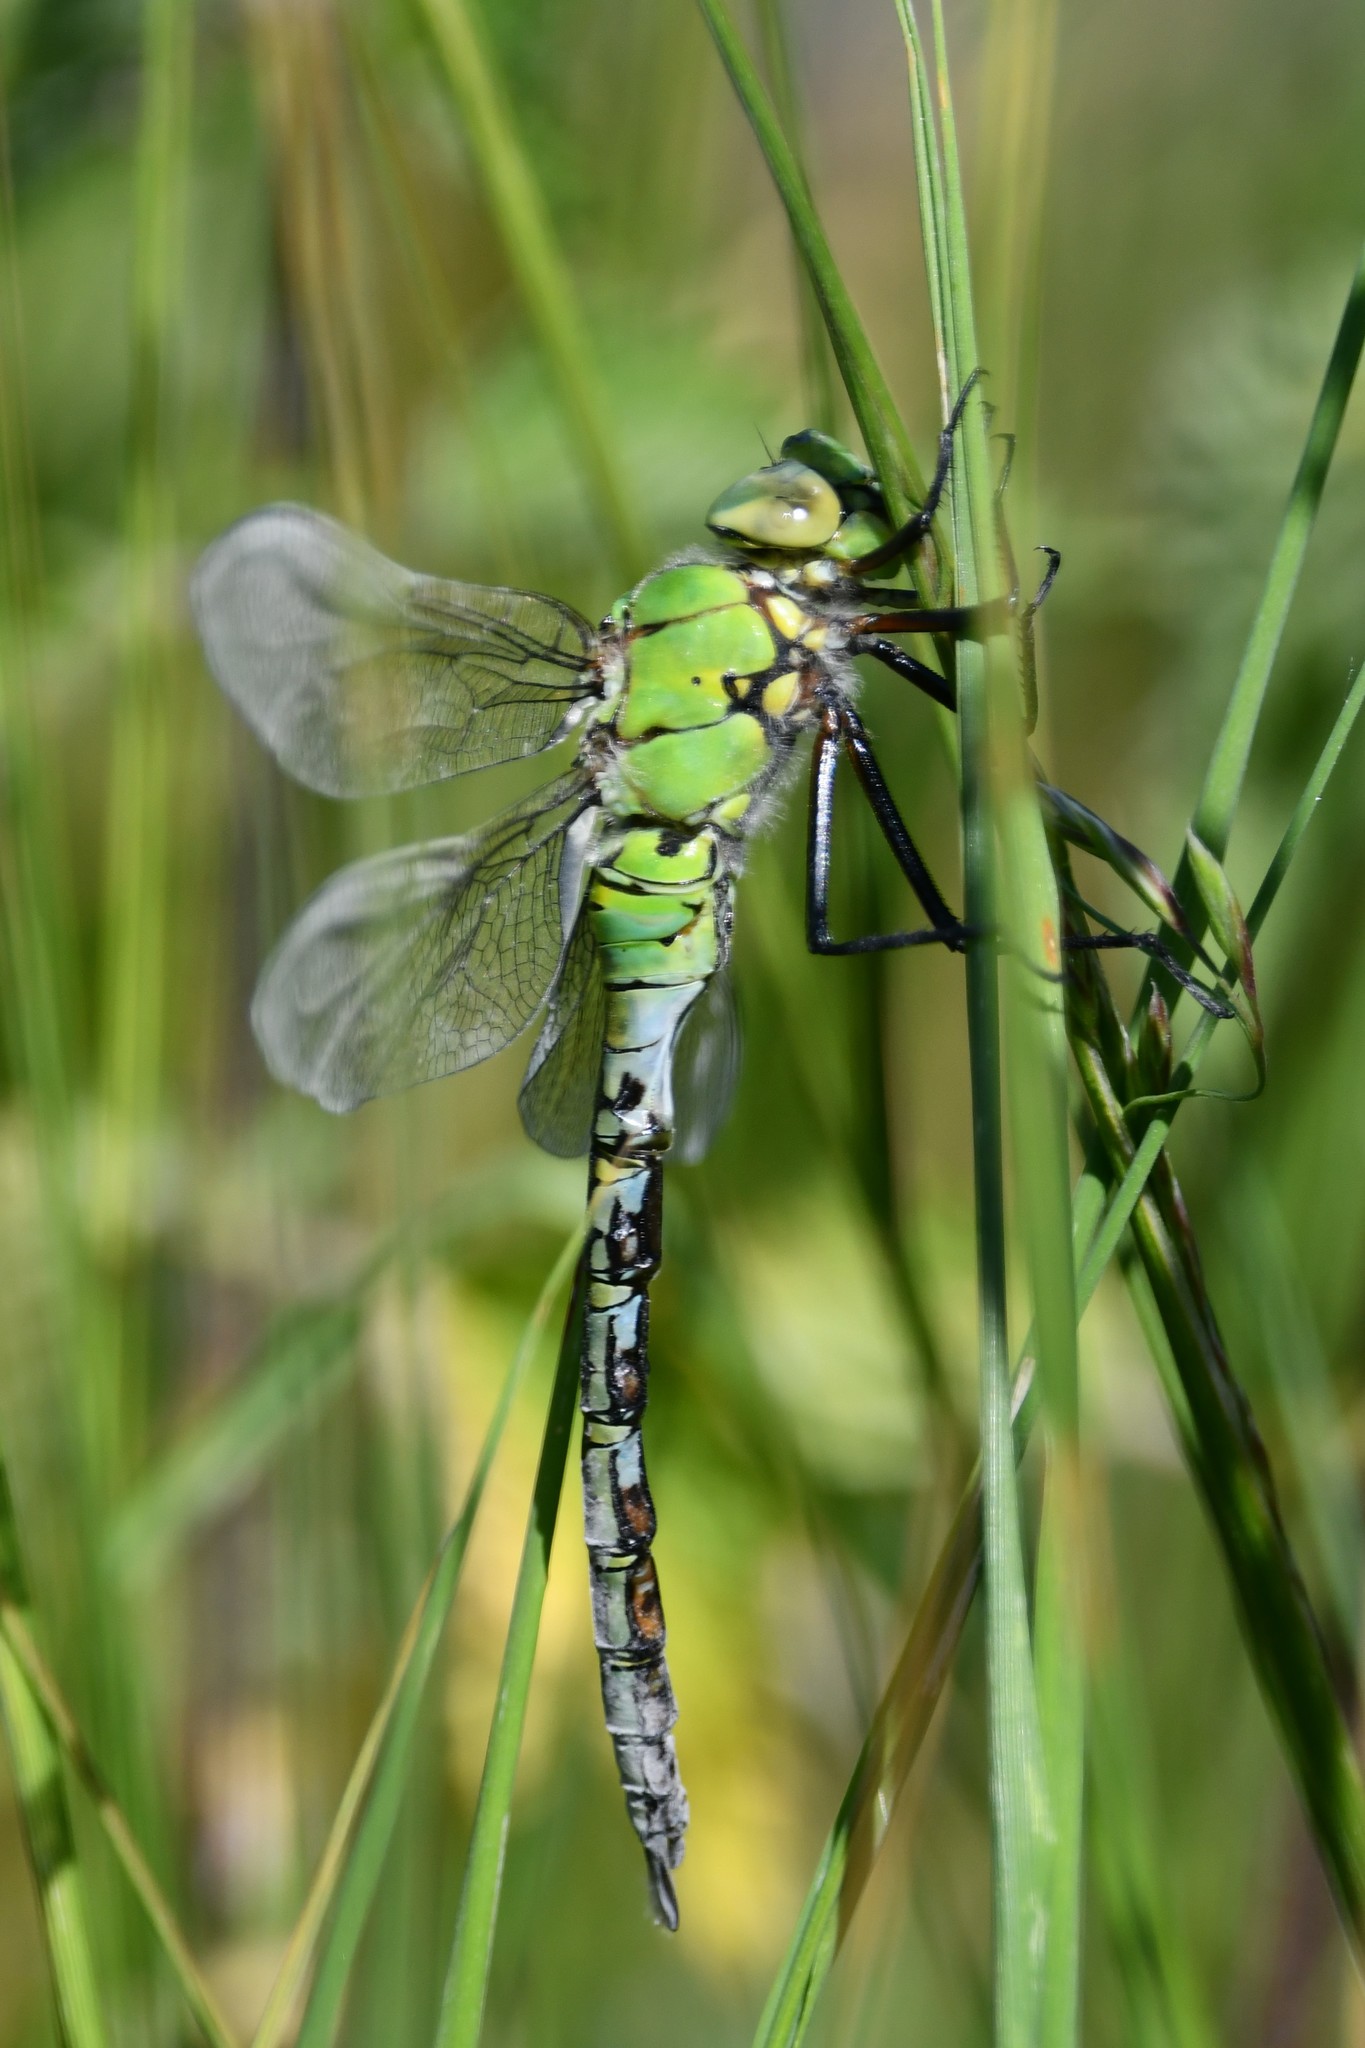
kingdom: Animalia
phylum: Arthropoda
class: Insecta
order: Odonata
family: Aeshnidae
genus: Anax
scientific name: Anax imperator
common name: Emperor dragonfly
